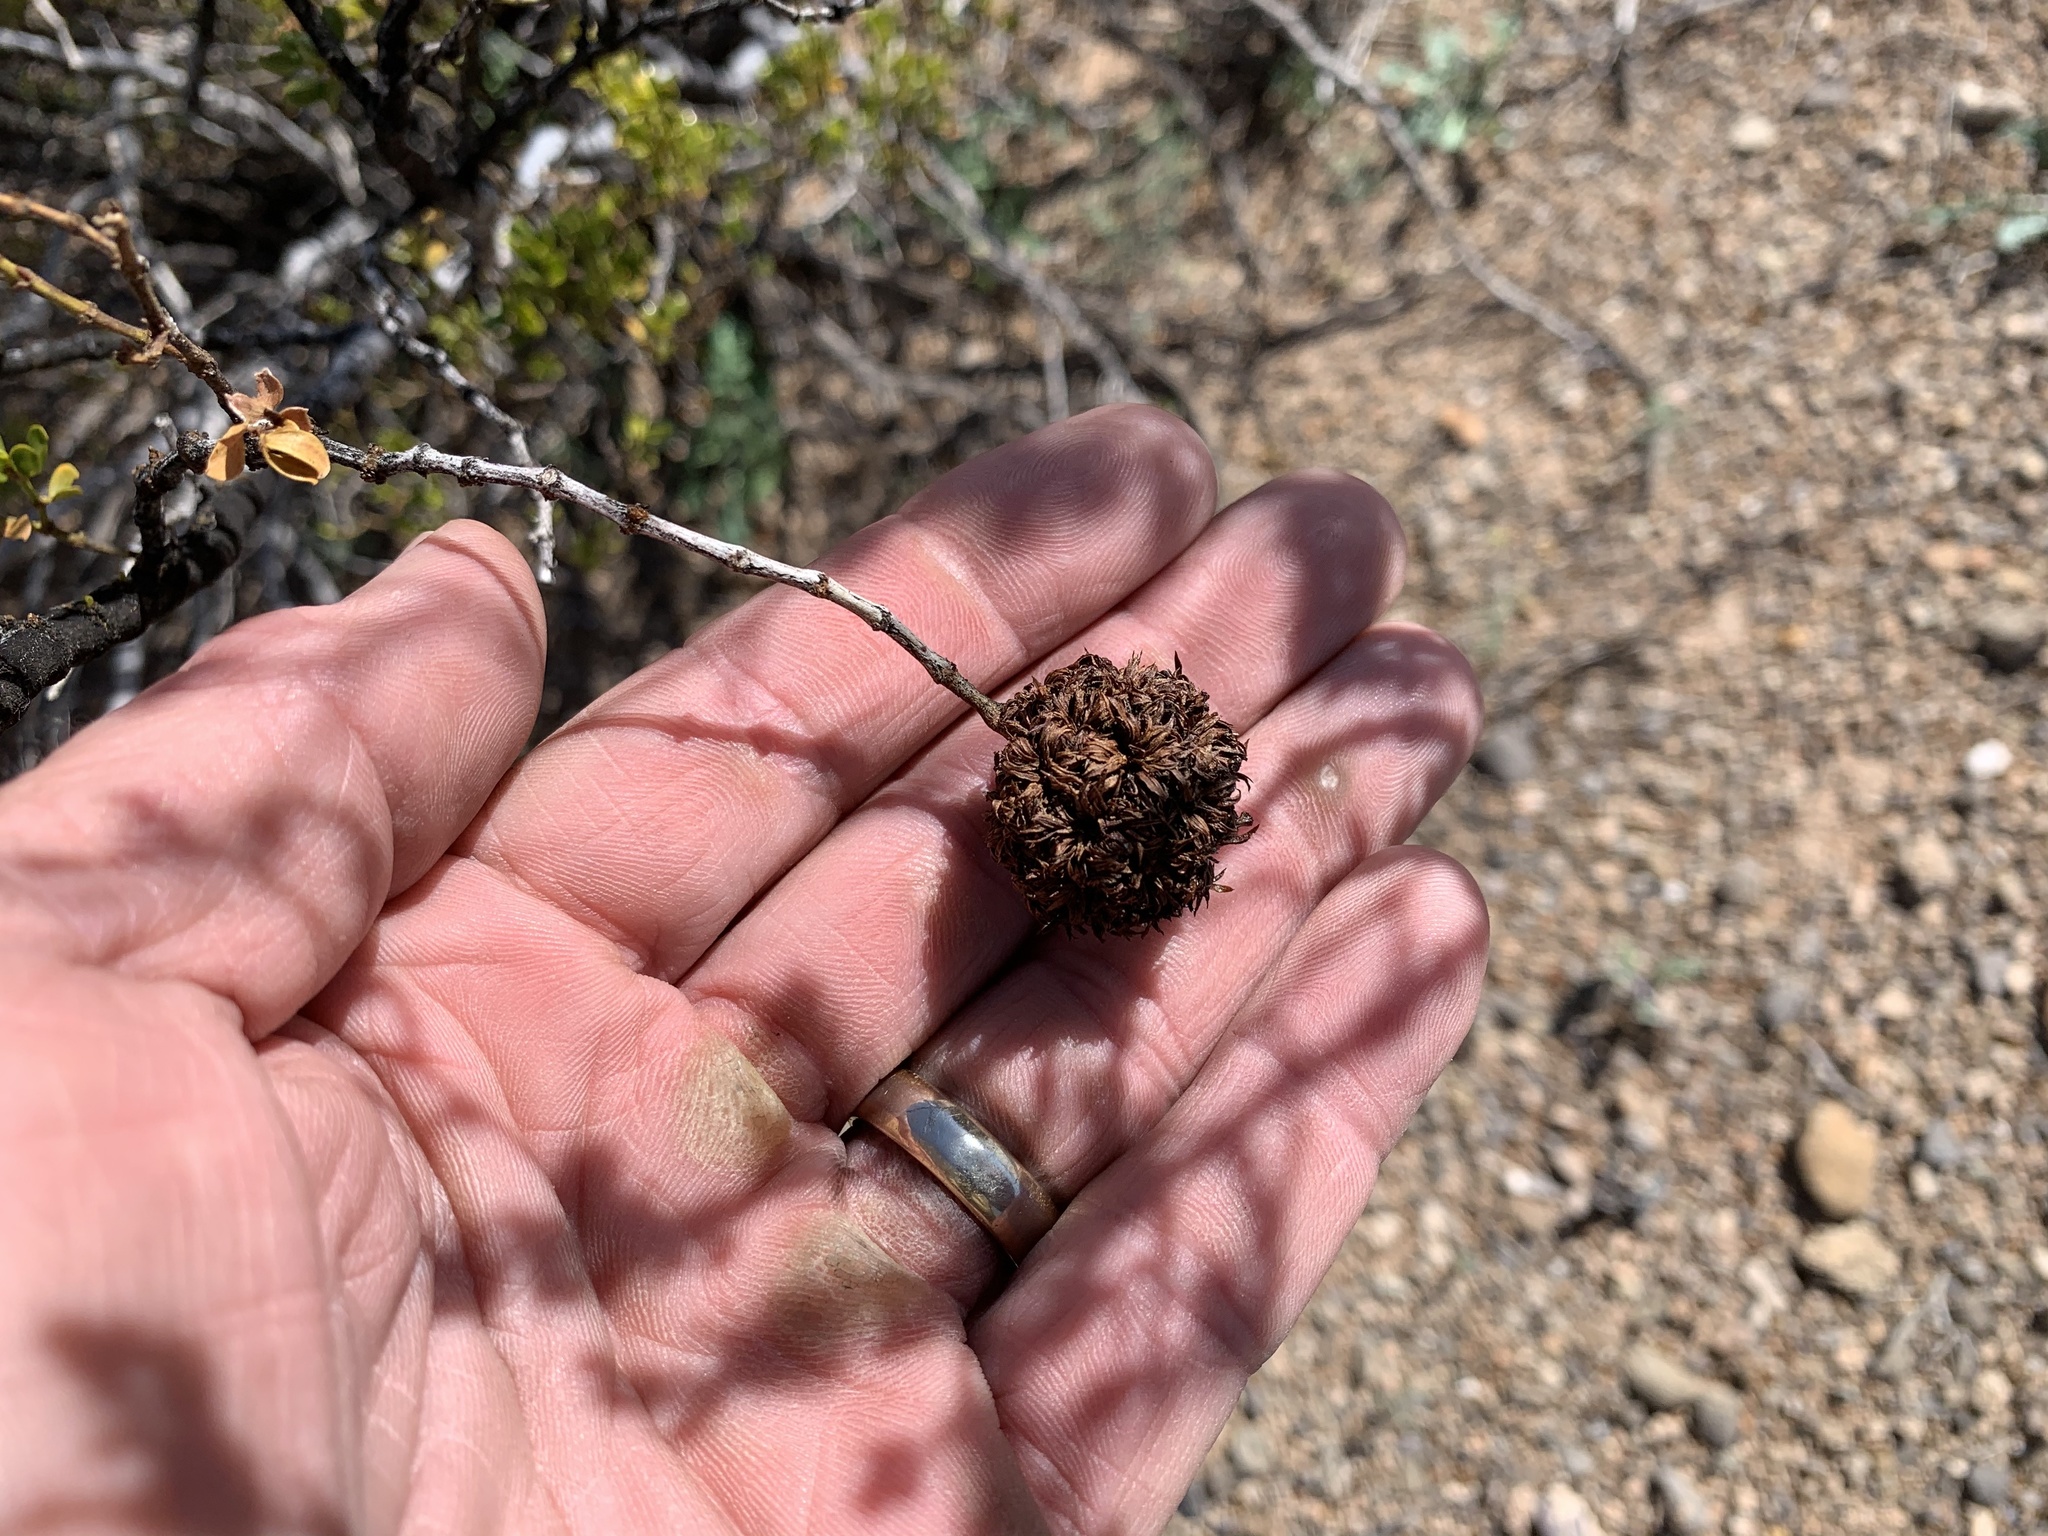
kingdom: Animalia
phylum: Arthropoda
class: Insecta
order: Diptera
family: Cecidomyiidae
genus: Asphondylia
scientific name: Asphondylia auripila
